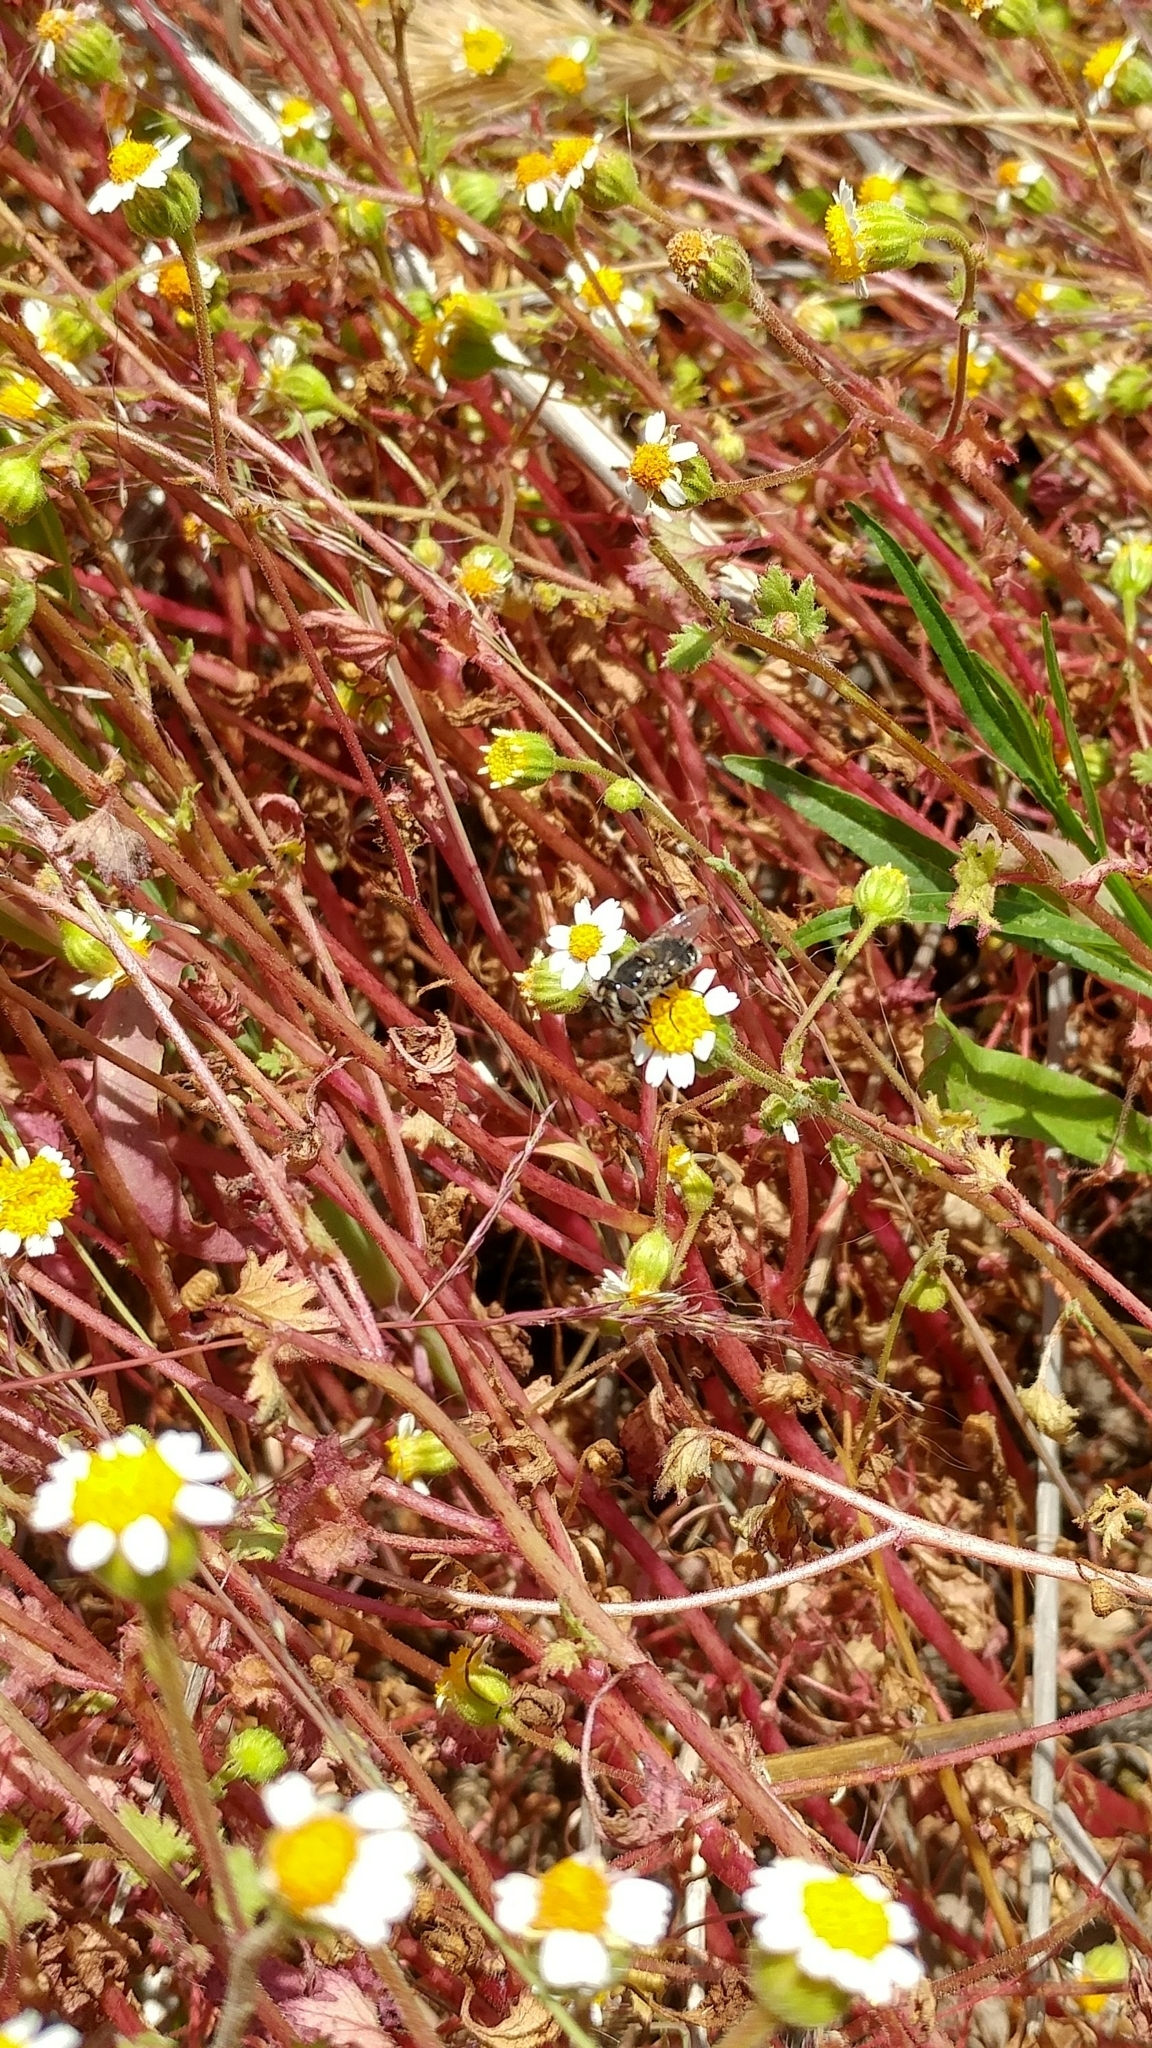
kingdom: Plantae
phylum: Tracheophyta
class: Magnoliopsida
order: Asterales
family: Asteraceae
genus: Laphamia
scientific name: Laphamia emoryi
